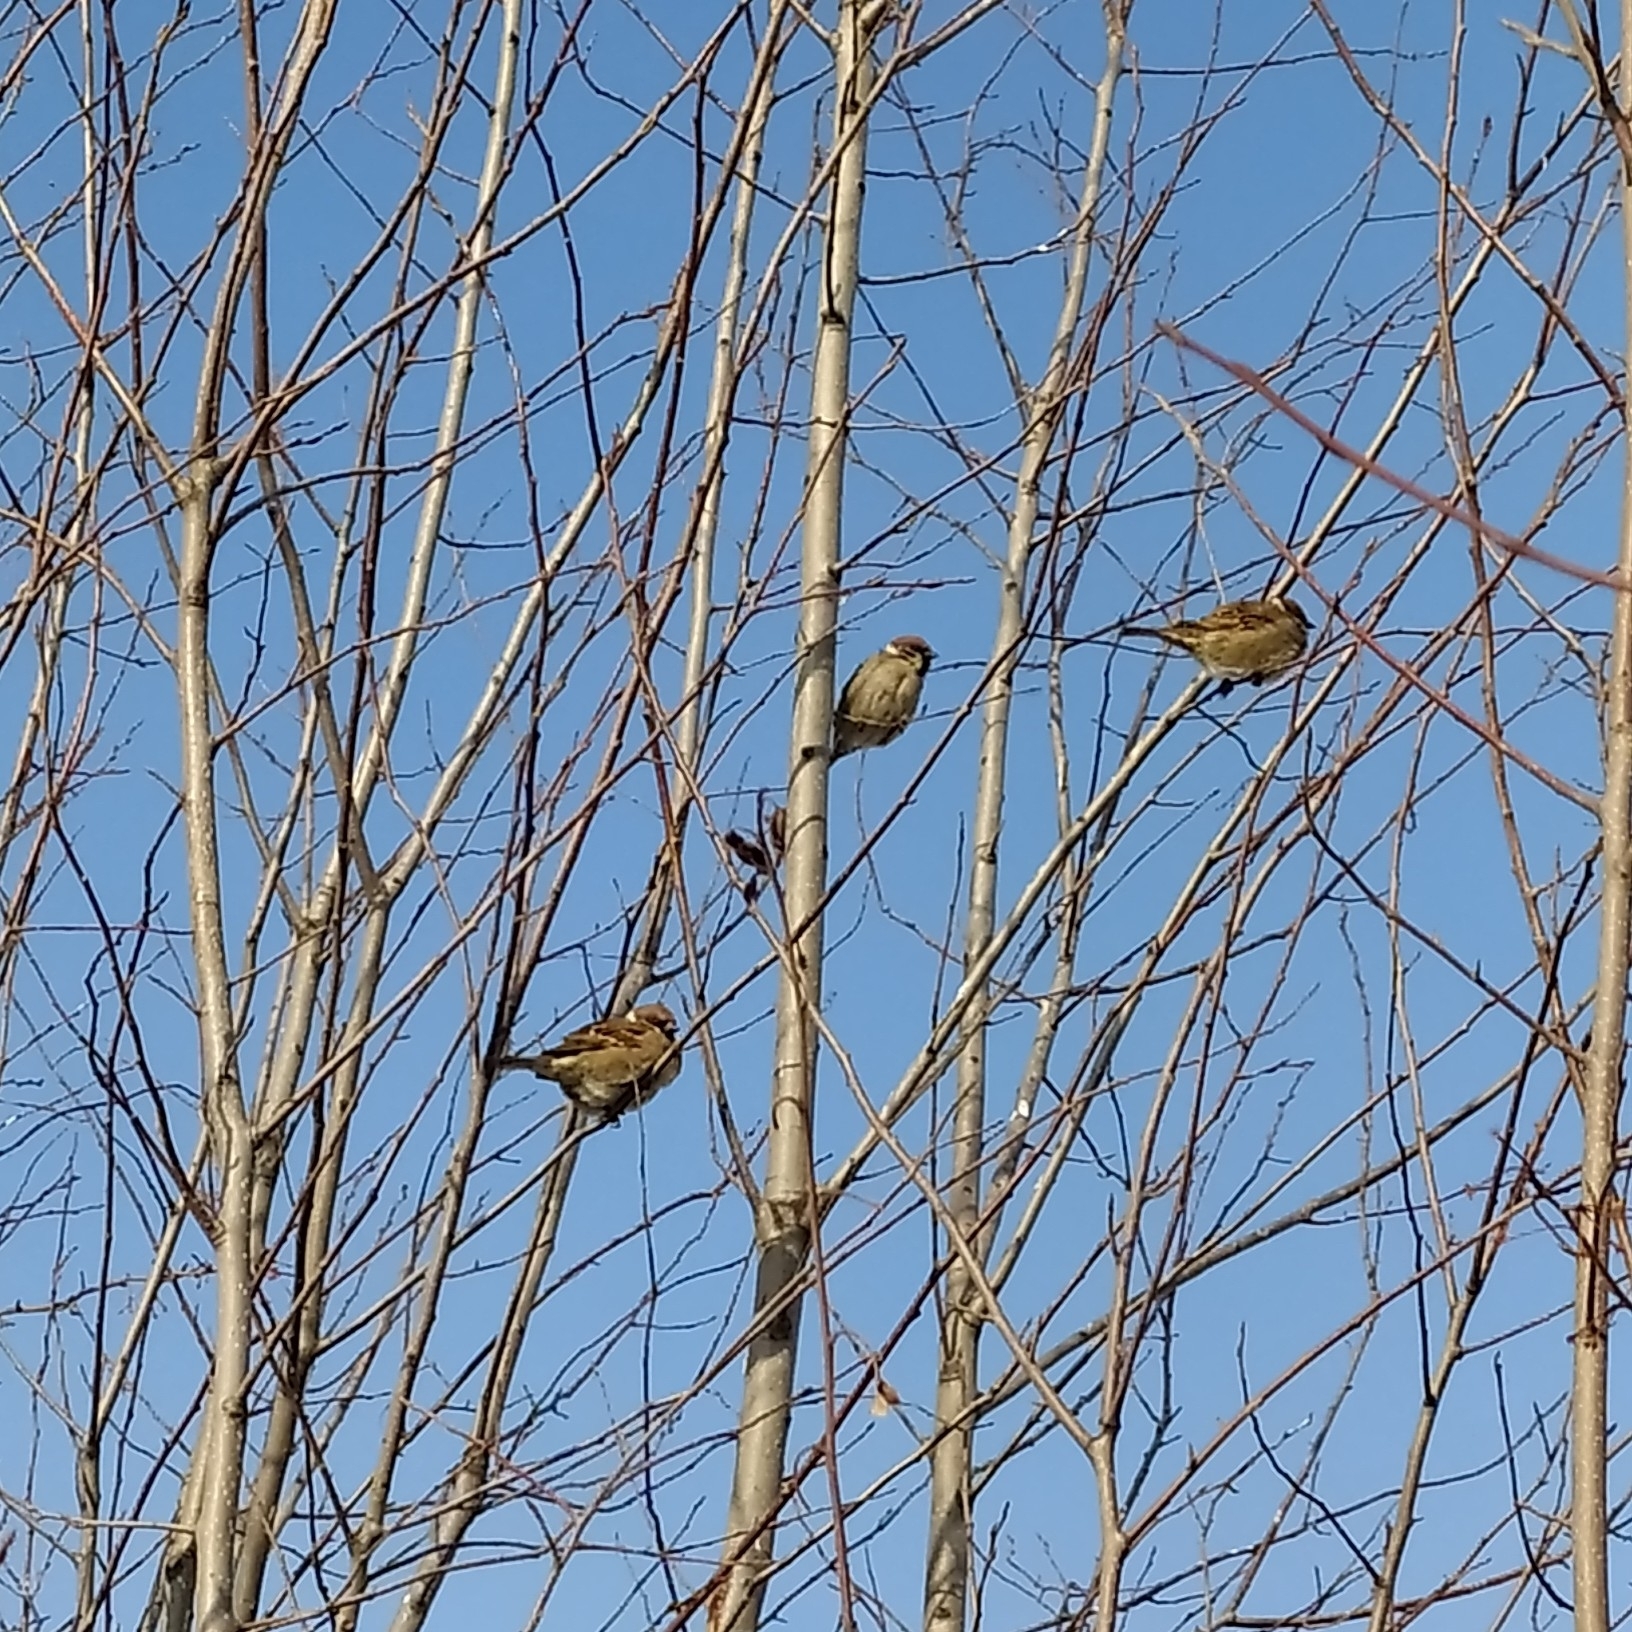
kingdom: Animalia
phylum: Chordata
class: Aves
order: Passeriformes
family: Passeridae
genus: Passer
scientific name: Passer montanus
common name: Eurasian tree sparrow
